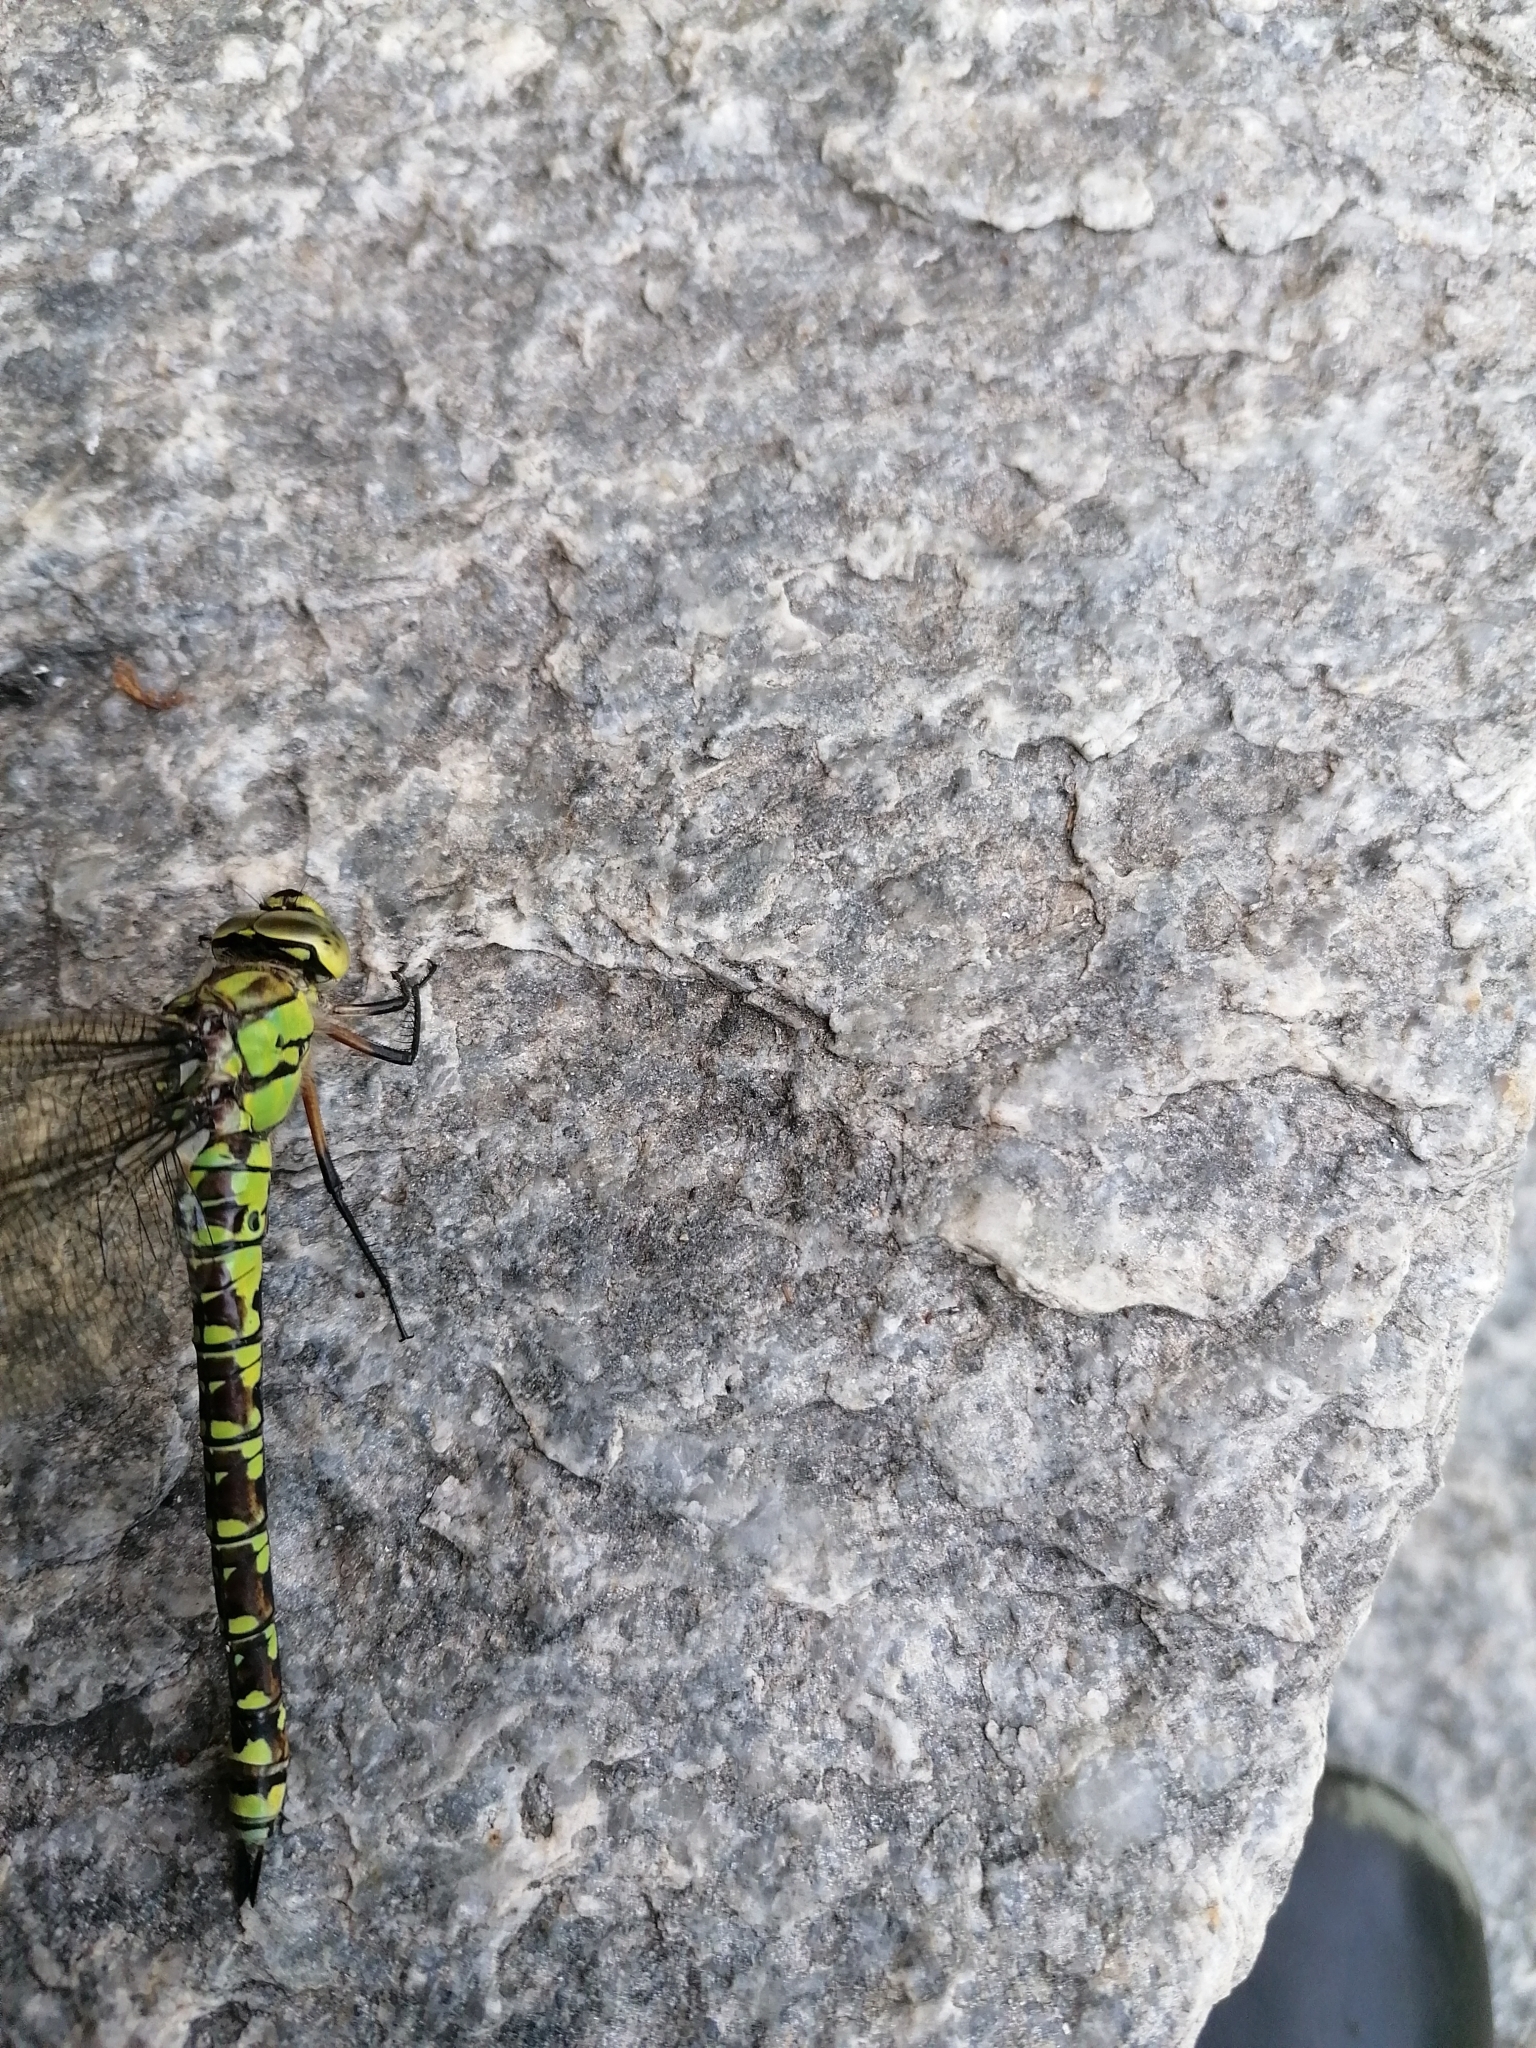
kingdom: Animalia
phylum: Arthropoda
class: Insecta
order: Odonata
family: Aeshnidae
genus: Aeshna
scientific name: Aeshna cyanea
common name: Southern hawker
